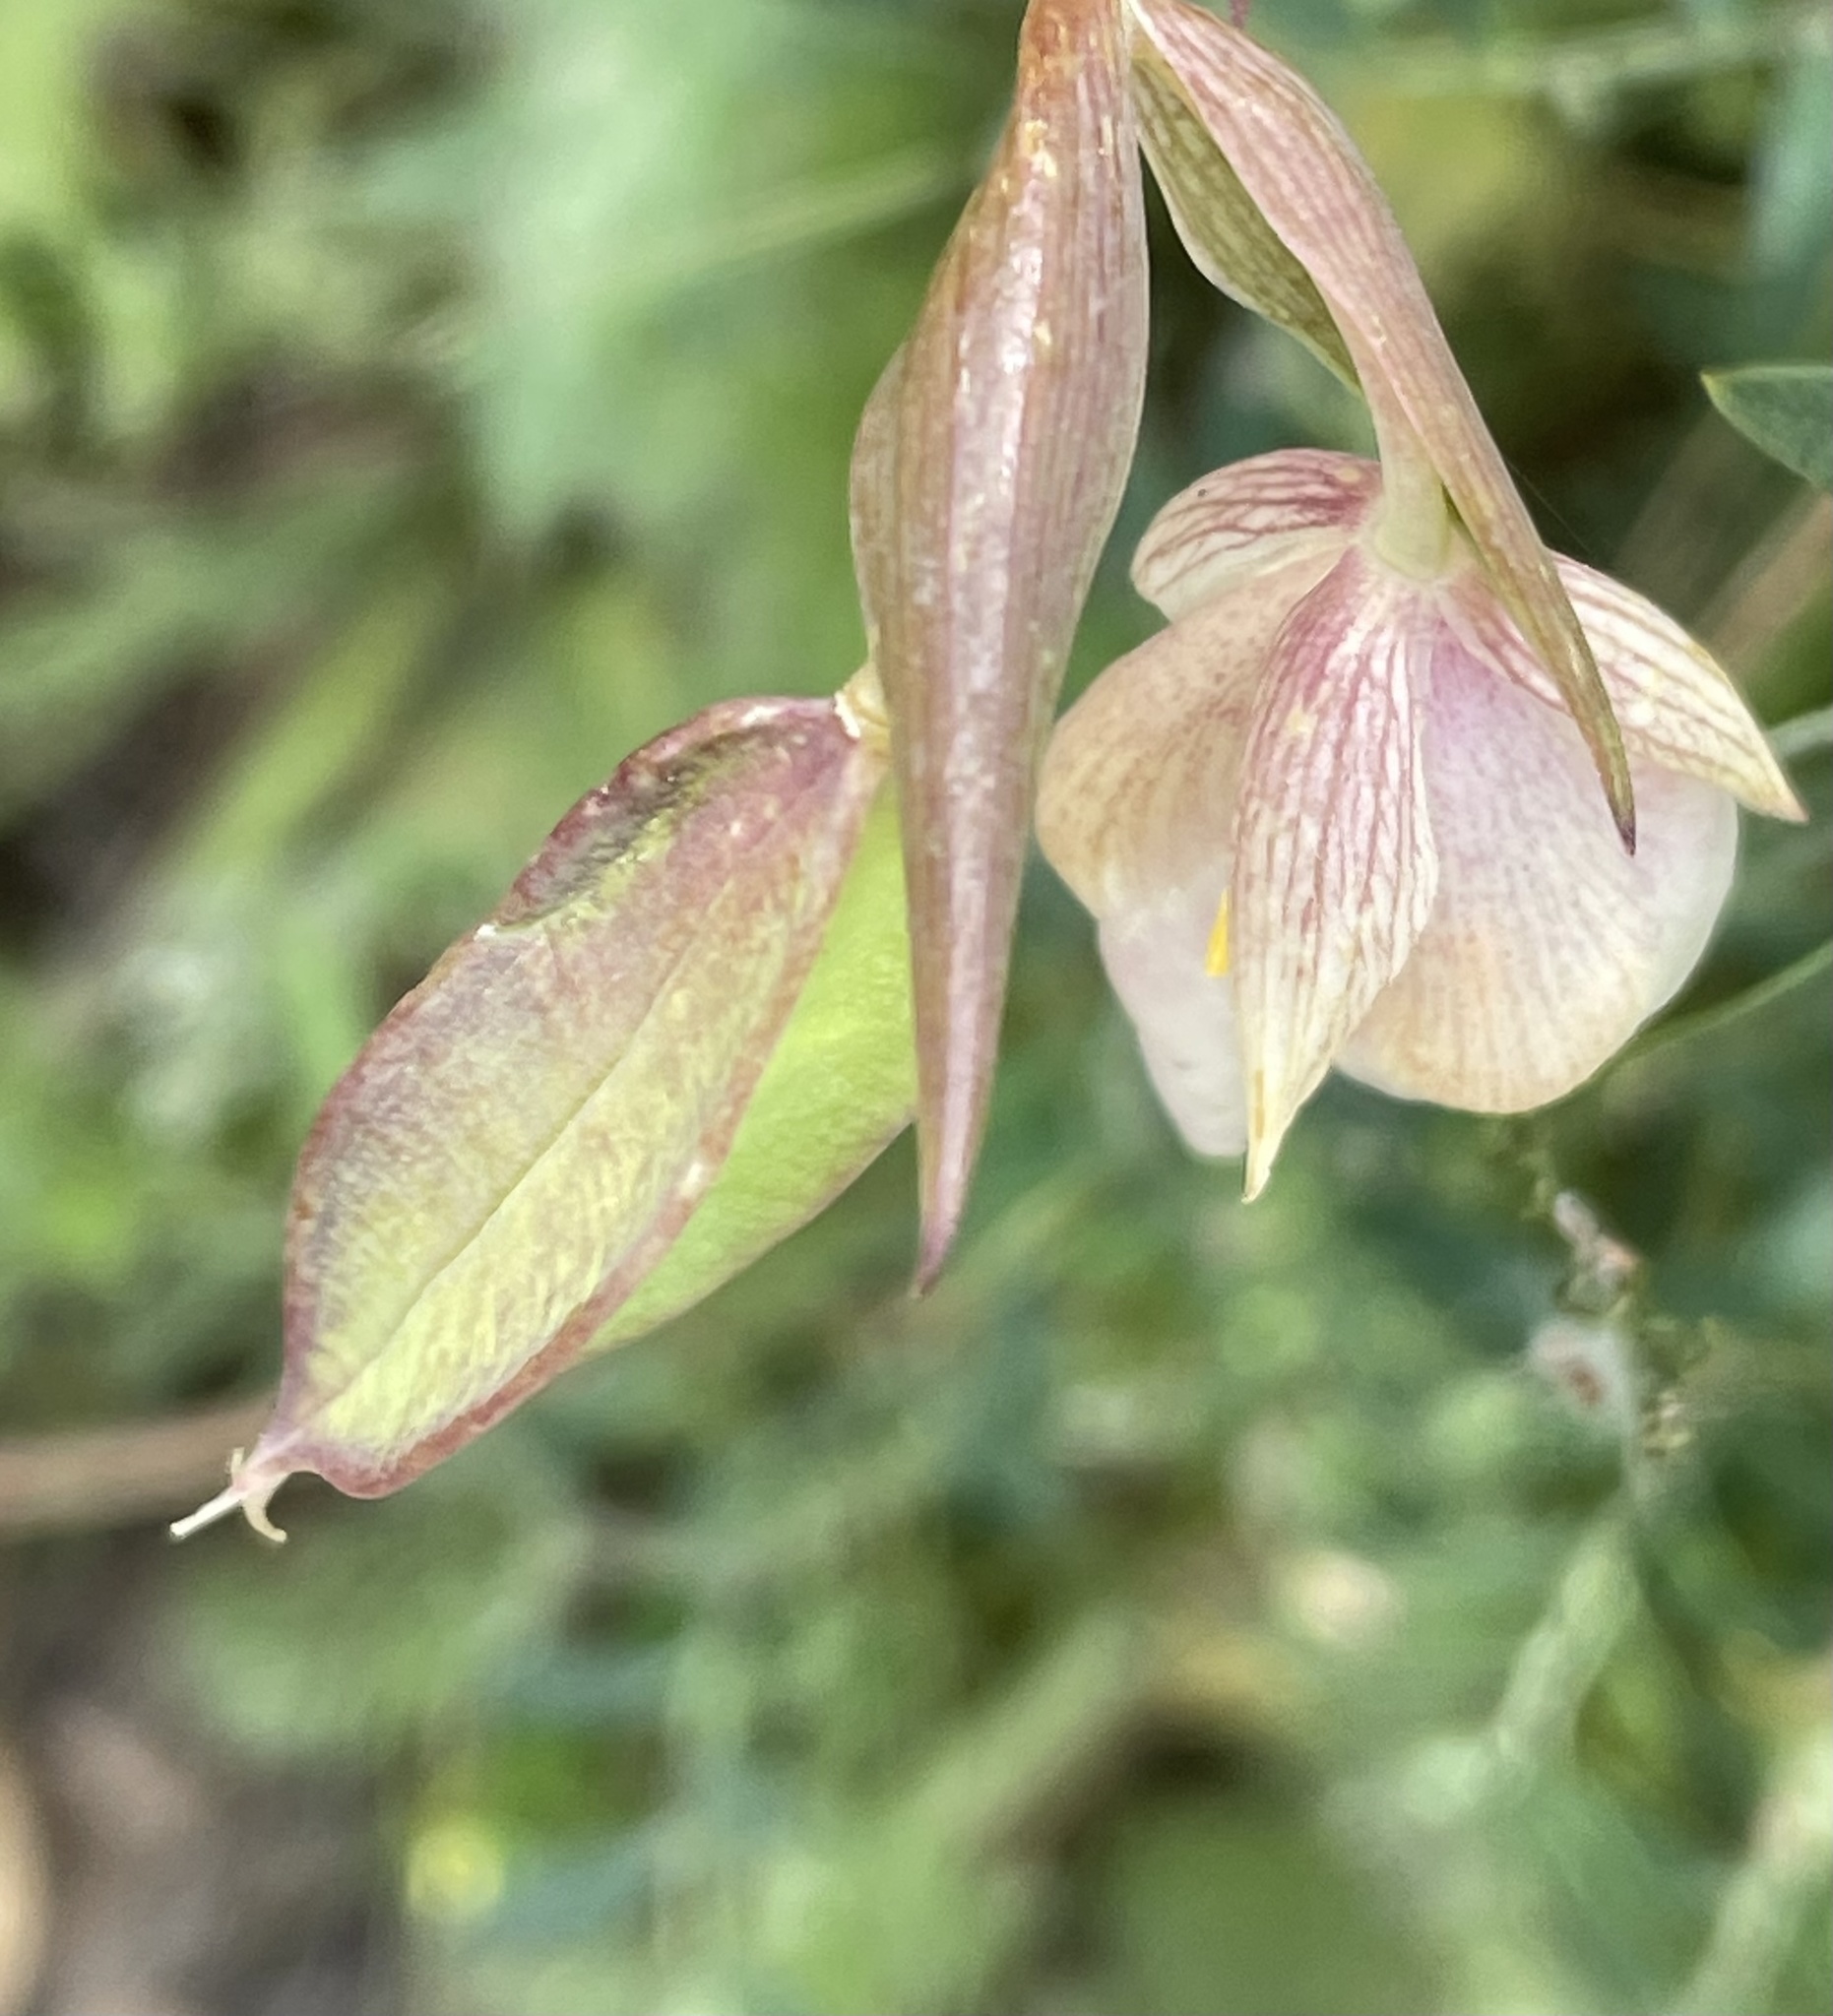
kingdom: Plantae
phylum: Tracheophyta
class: Liliopsida
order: Liliales
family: Liliaceae
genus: Calochortus
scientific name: Calochortus albus
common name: Fairy-lantern
